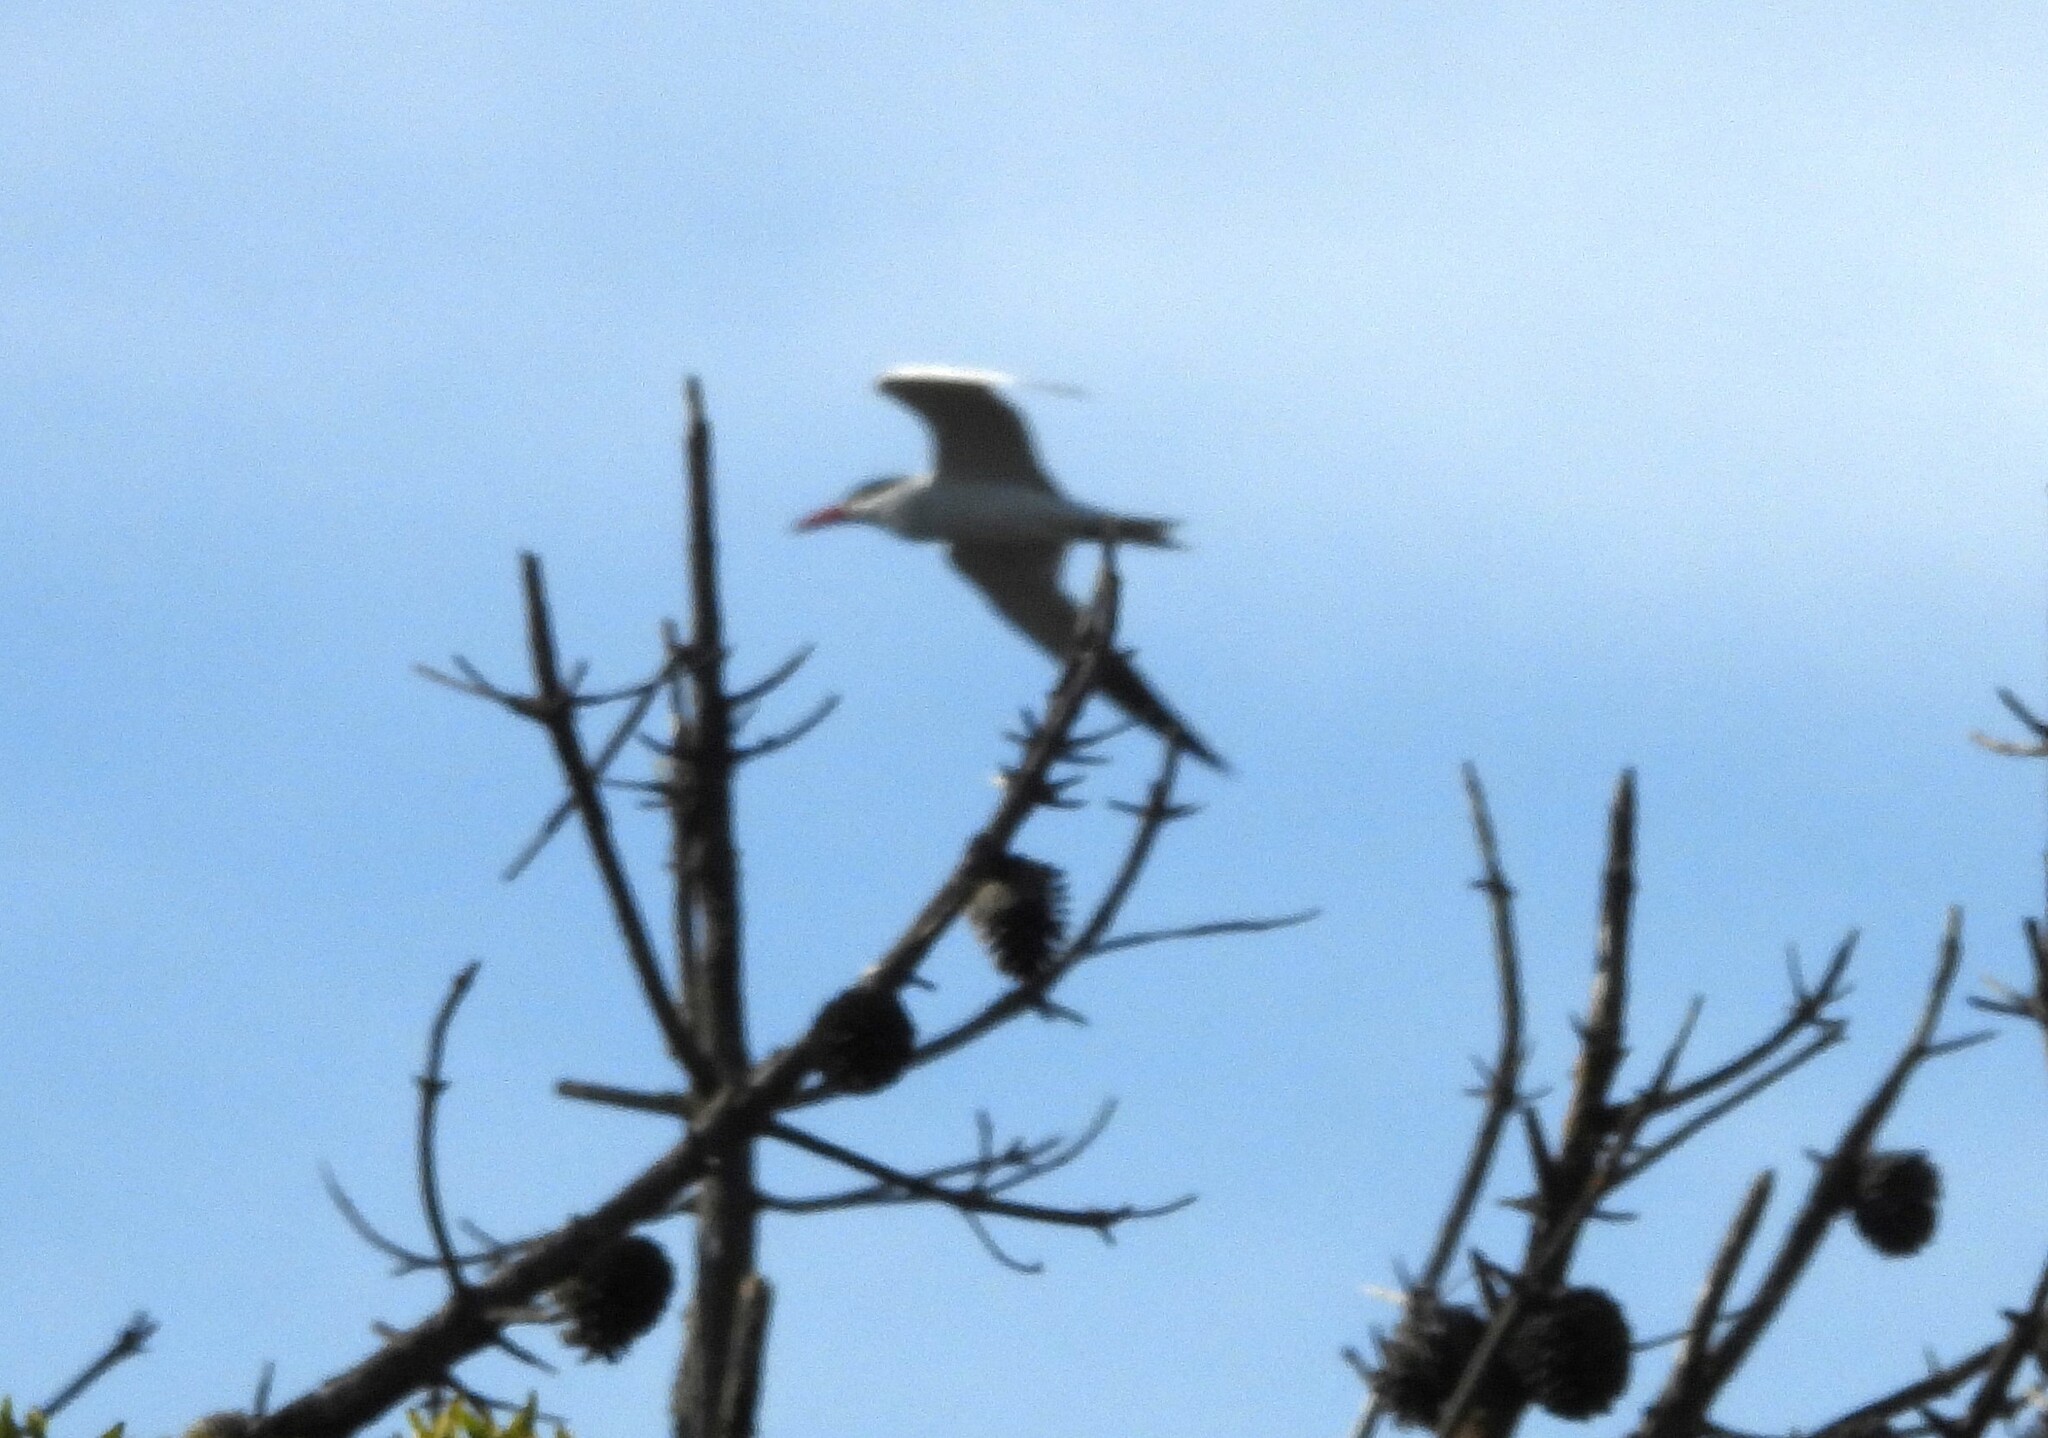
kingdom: Animalia
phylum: Chordata
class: Aves
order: Charadriiformes
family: Laridae
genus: Hydroprogne
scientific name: Hydroprogne caspia
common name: Caspian tern
